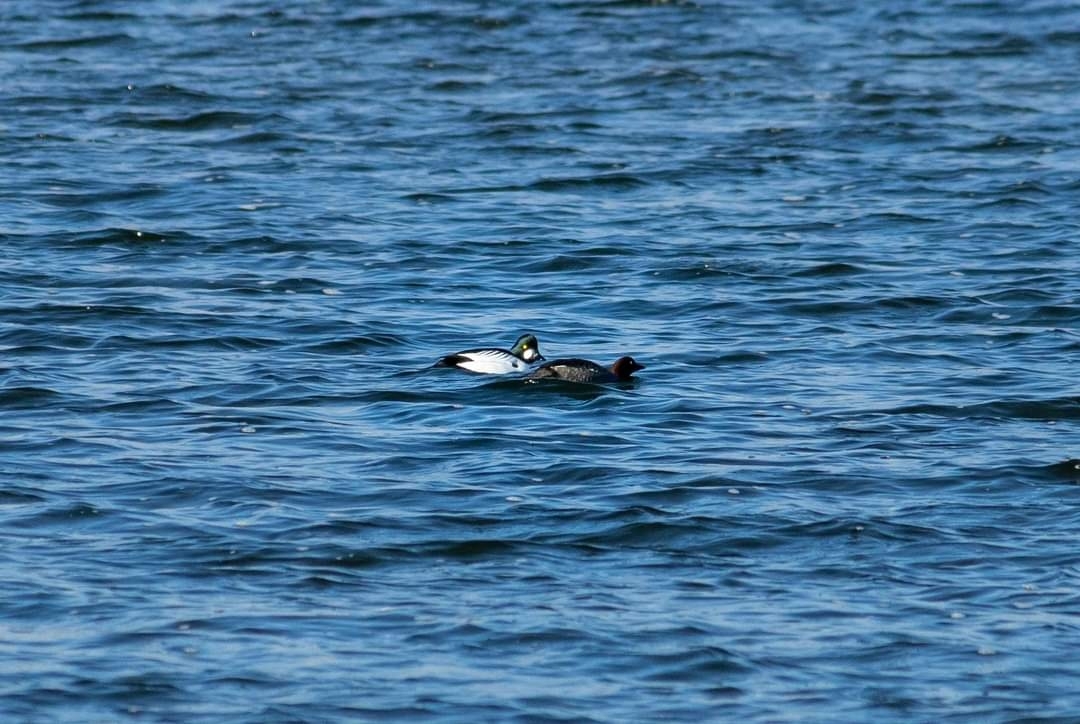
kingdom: Animalia
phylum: Chordata
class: Aves
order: Anseriformes
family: Anatidae
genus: Bucephala
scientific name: Bucephala clangula
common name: Common goldeneye
